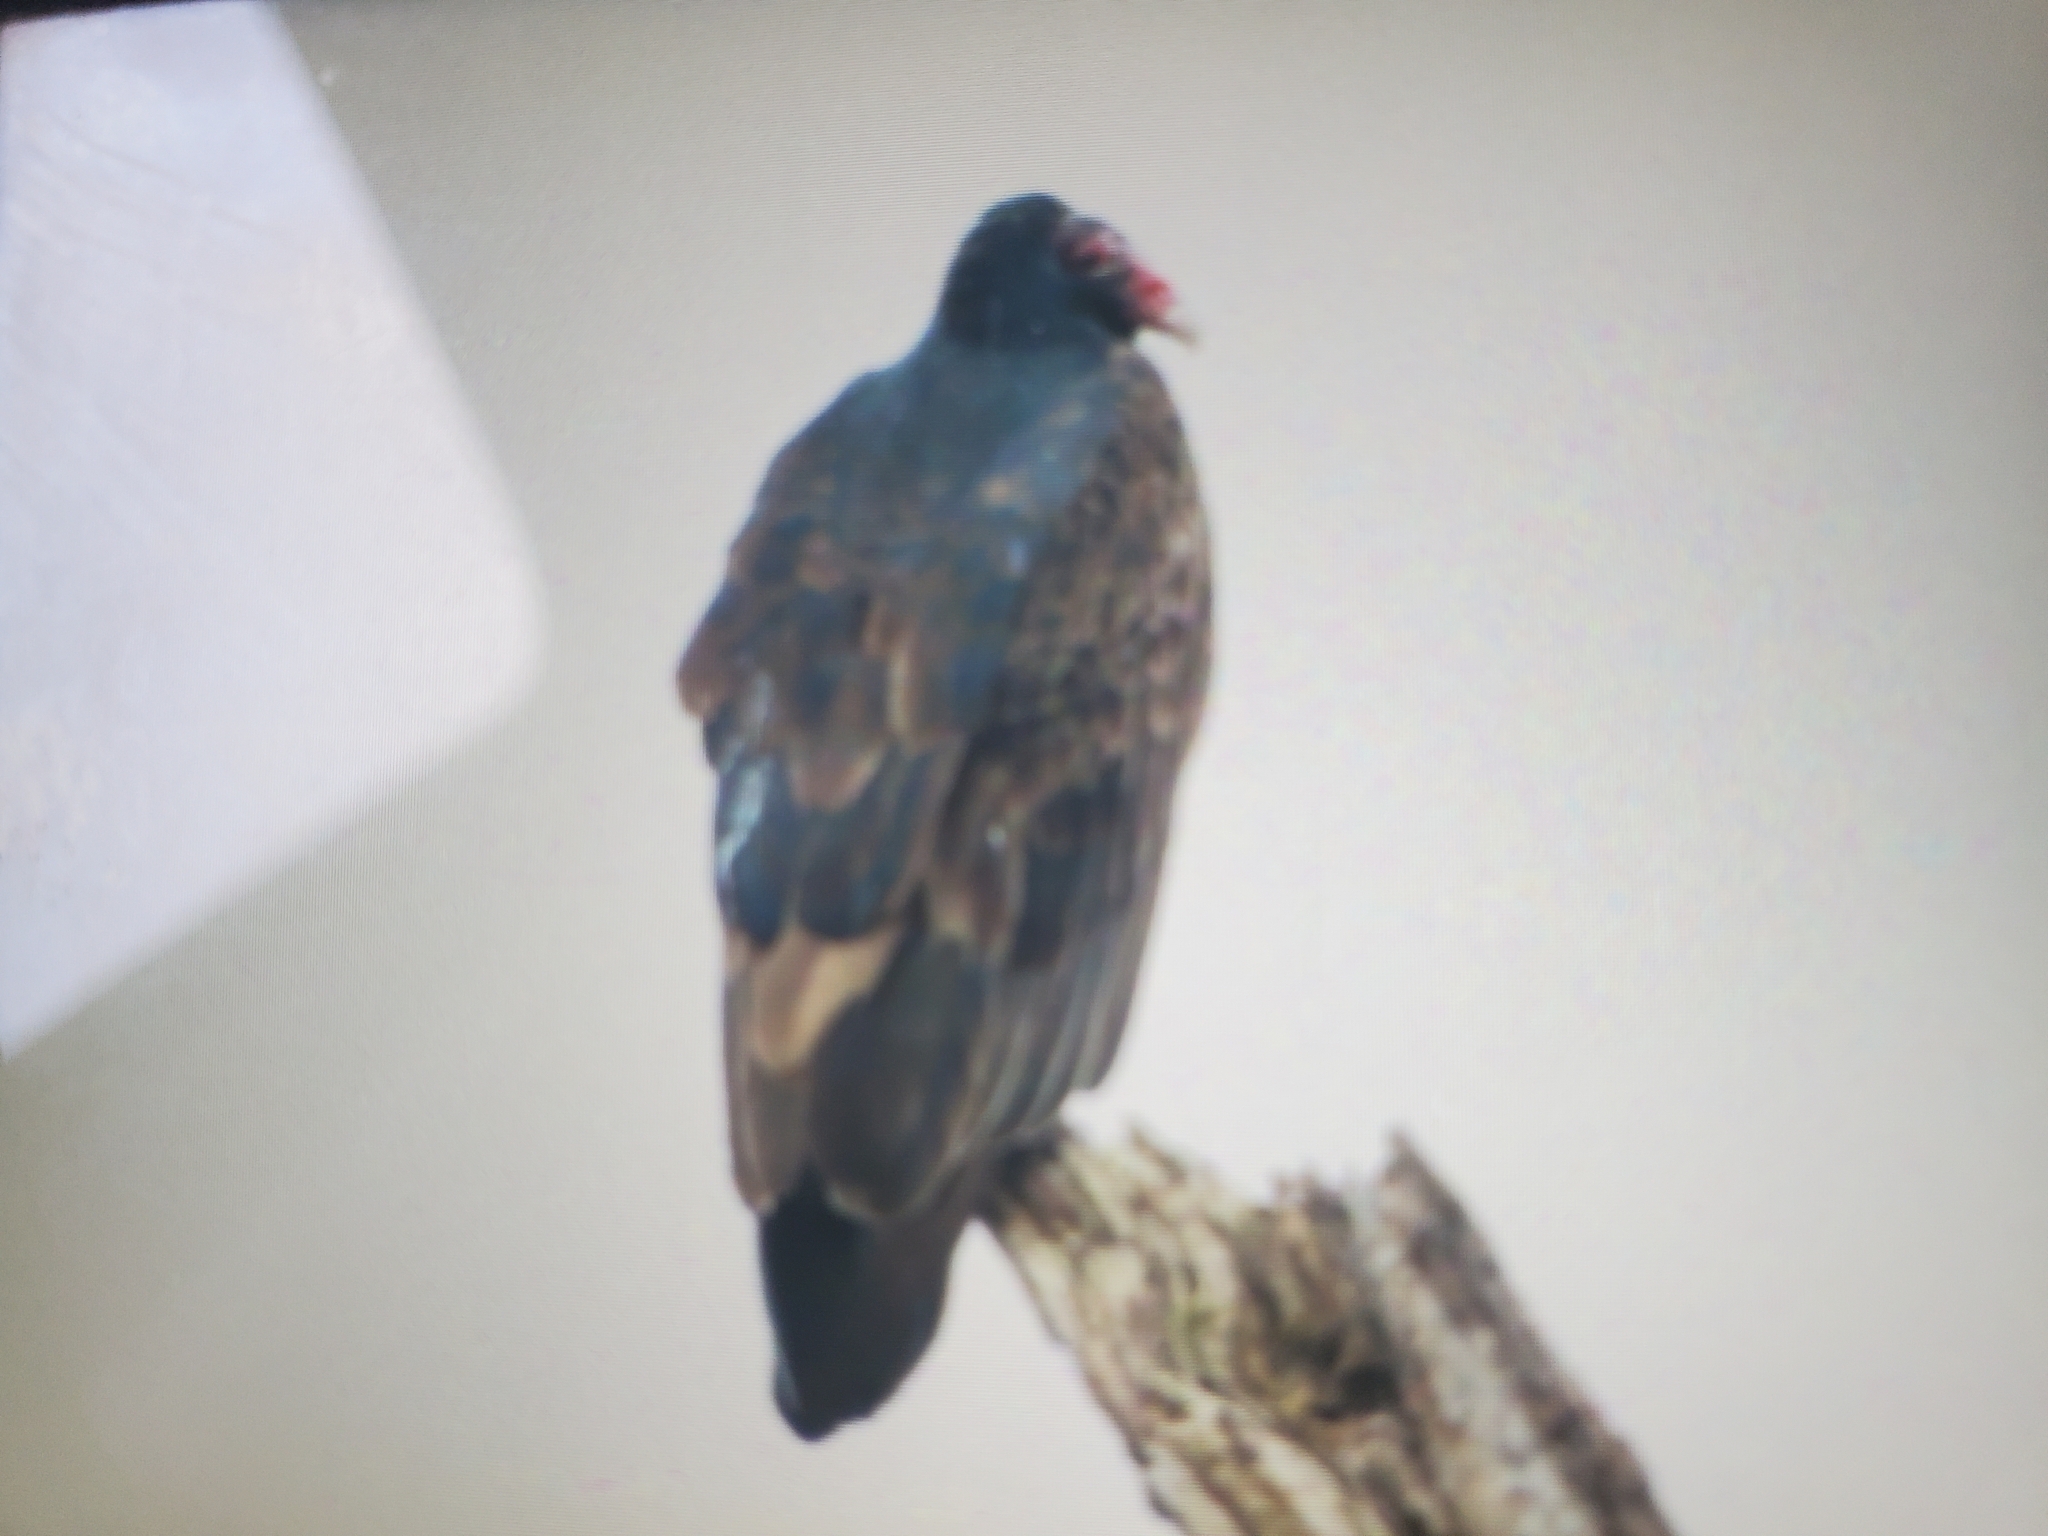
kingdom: Animalia
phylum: Chordata
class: Aves
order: Accipitriformes
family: Cathartidae
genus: Cathartes
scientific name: Cathartes aura
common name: Turkey vulture
